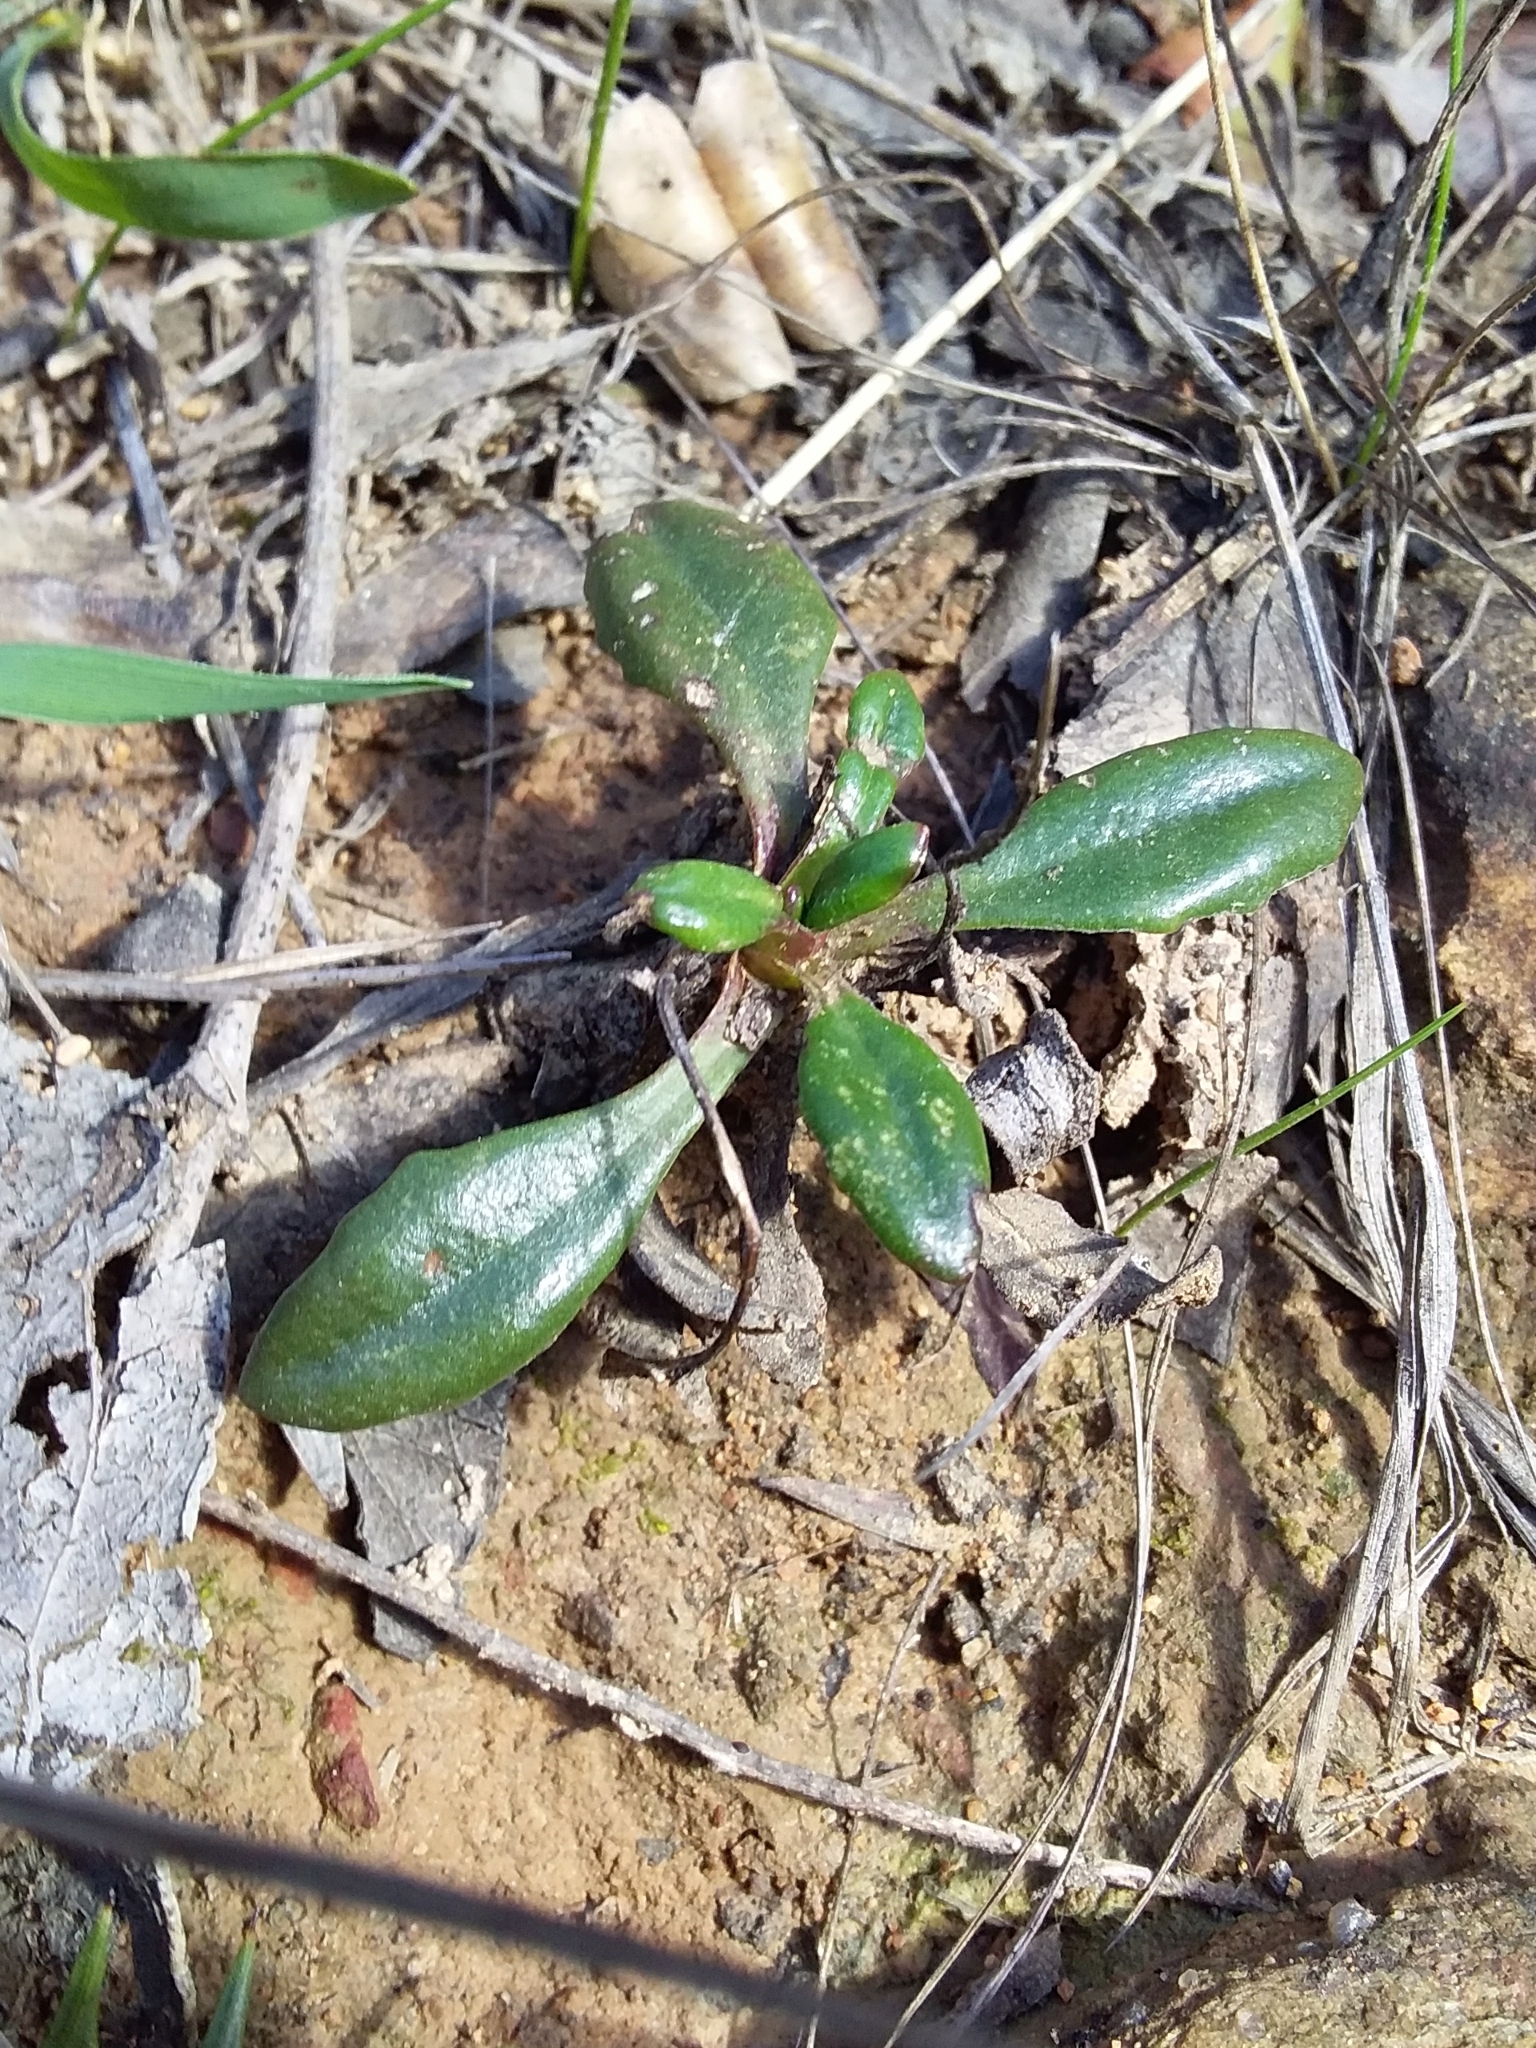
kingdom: Plantae
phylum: Tracheophyta
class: Magnoliopsida
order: Asterales
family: Goodeniaceae
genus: Goodenia
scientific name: Goodenia blackiana
